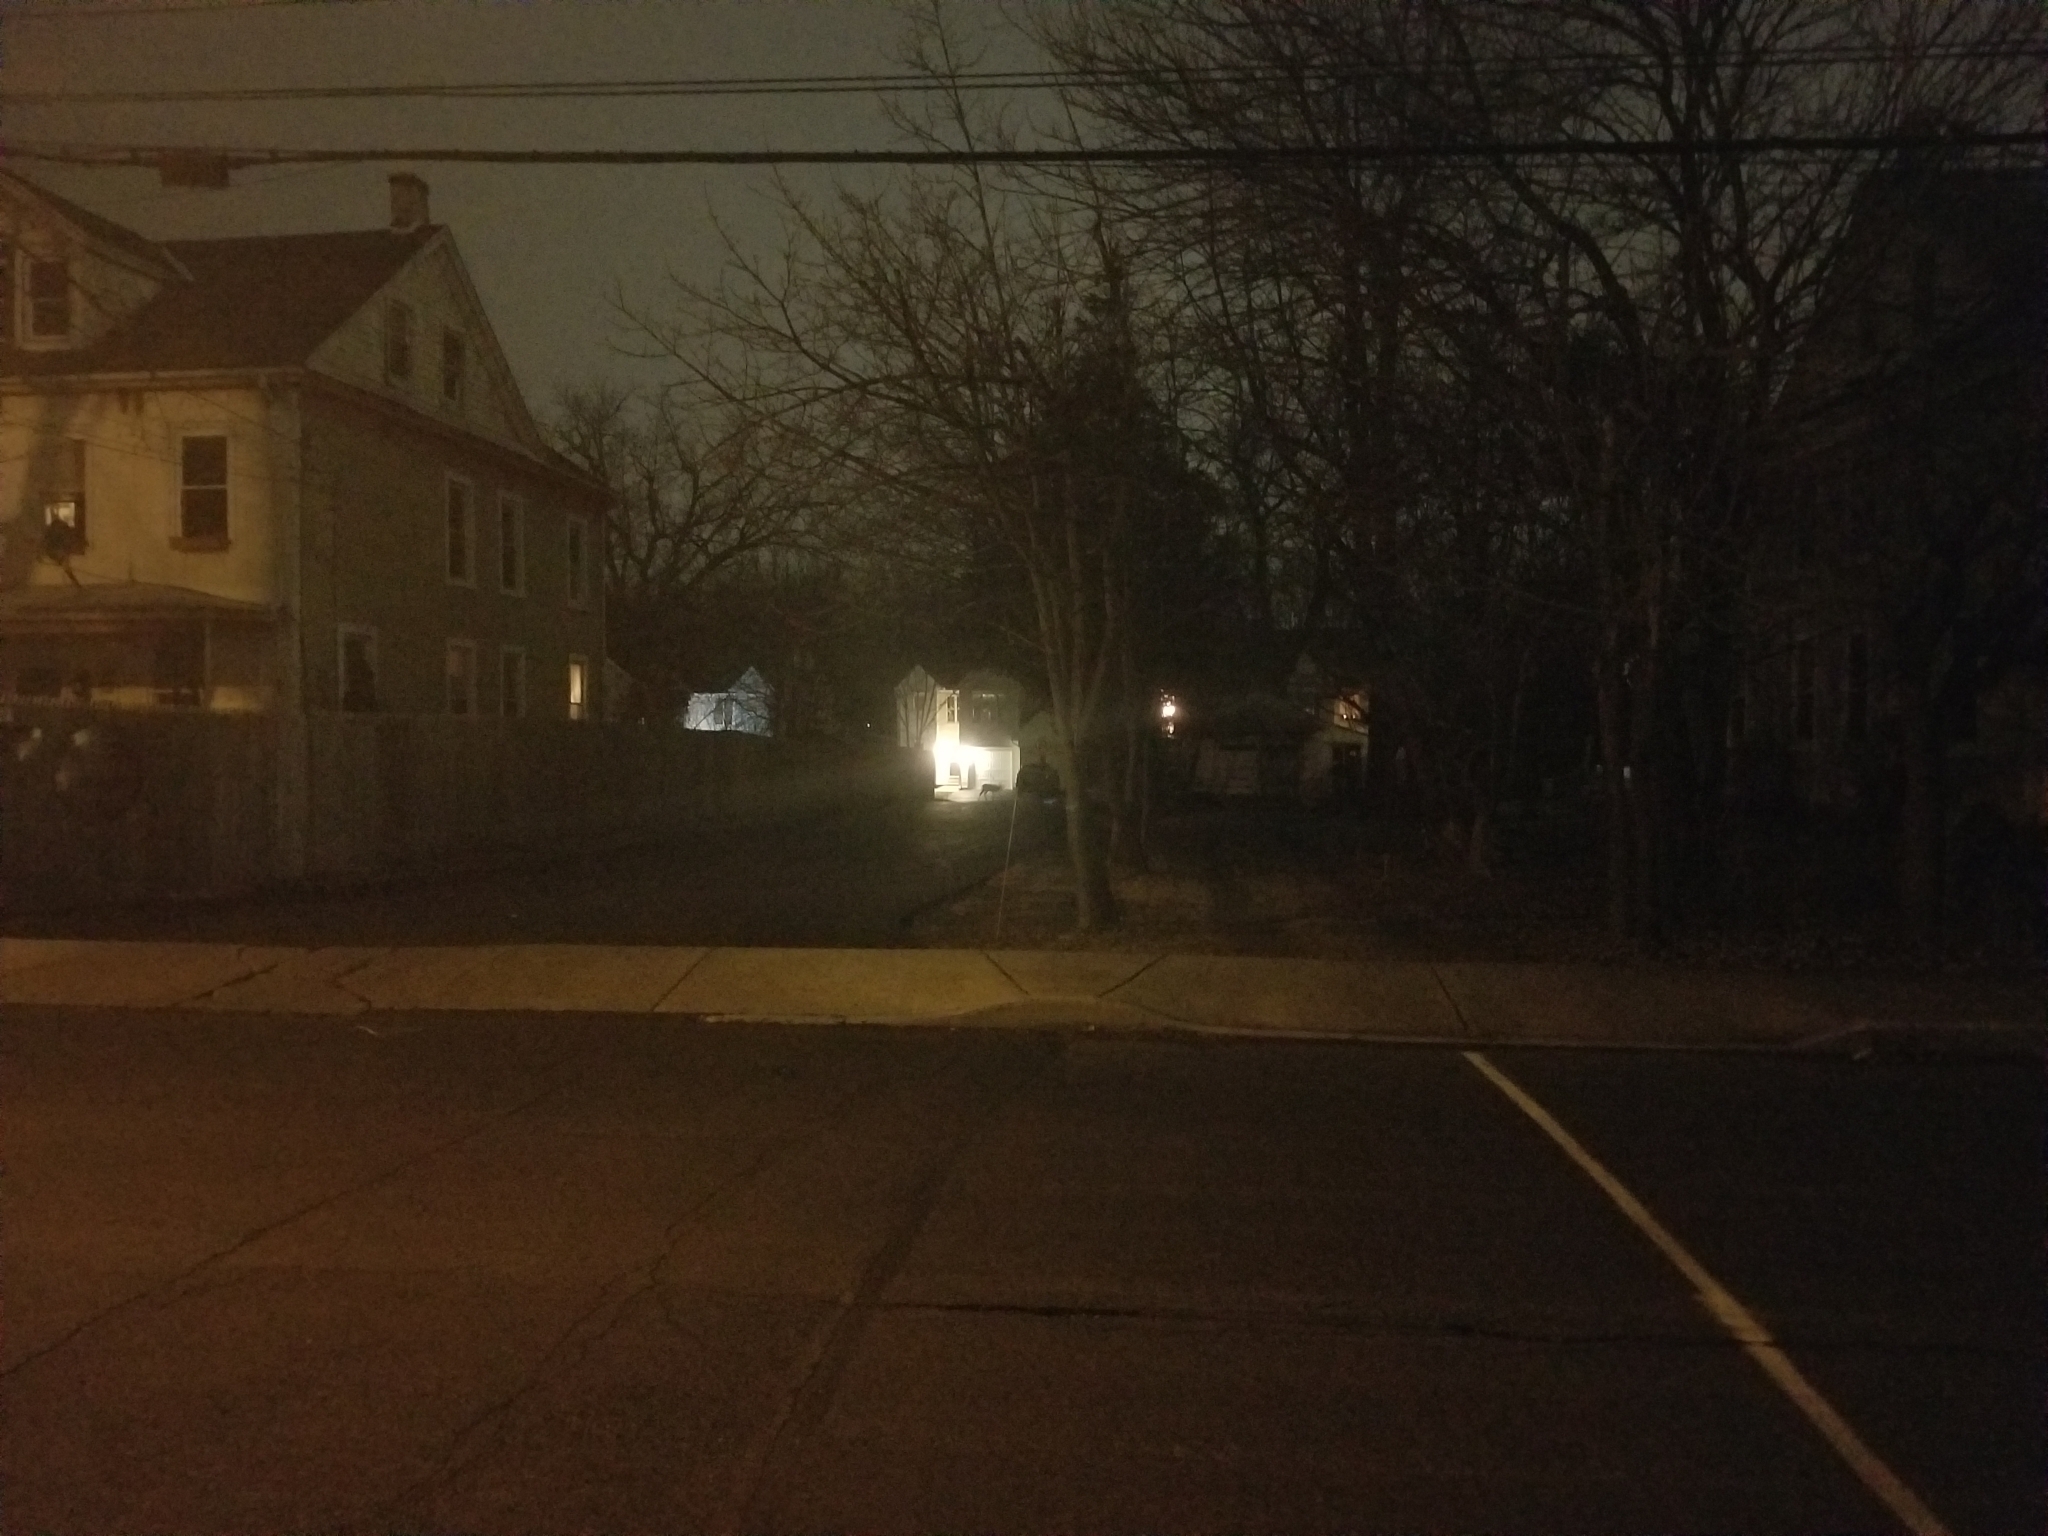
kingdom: Animalia
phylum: Chordata
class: Mammalia
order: Artiodactyla
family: Cervidae
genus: Odocoileus
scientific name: Odocoileus virginianus
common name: White-tailed deer
